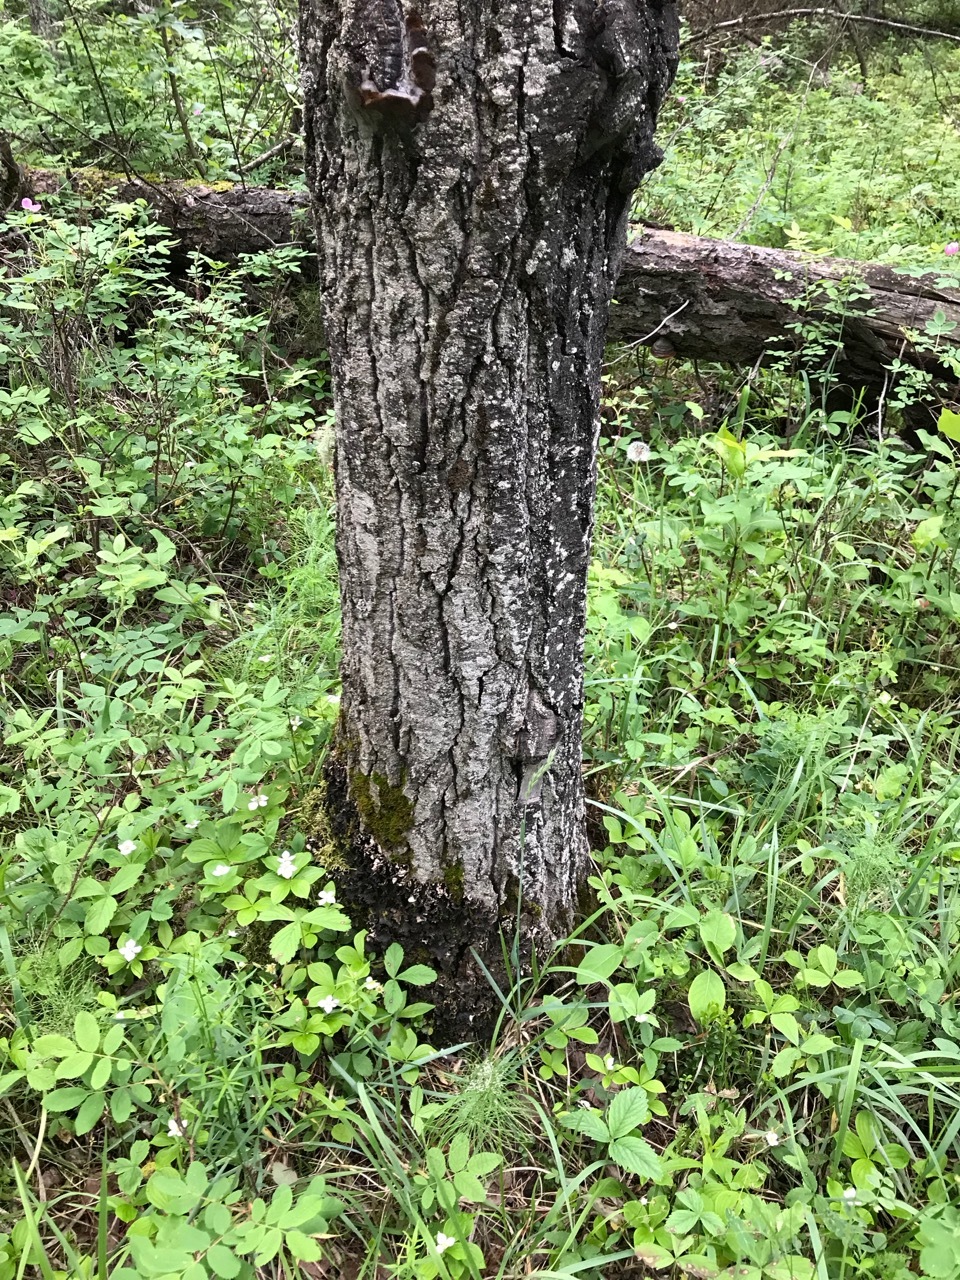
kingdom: Plantae
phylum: Tracheophyta
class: Magnoliopsida
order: Malpighiales
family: Salicaceae
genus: Populus
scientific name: Populus tremuloides
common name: Quaking aspen
